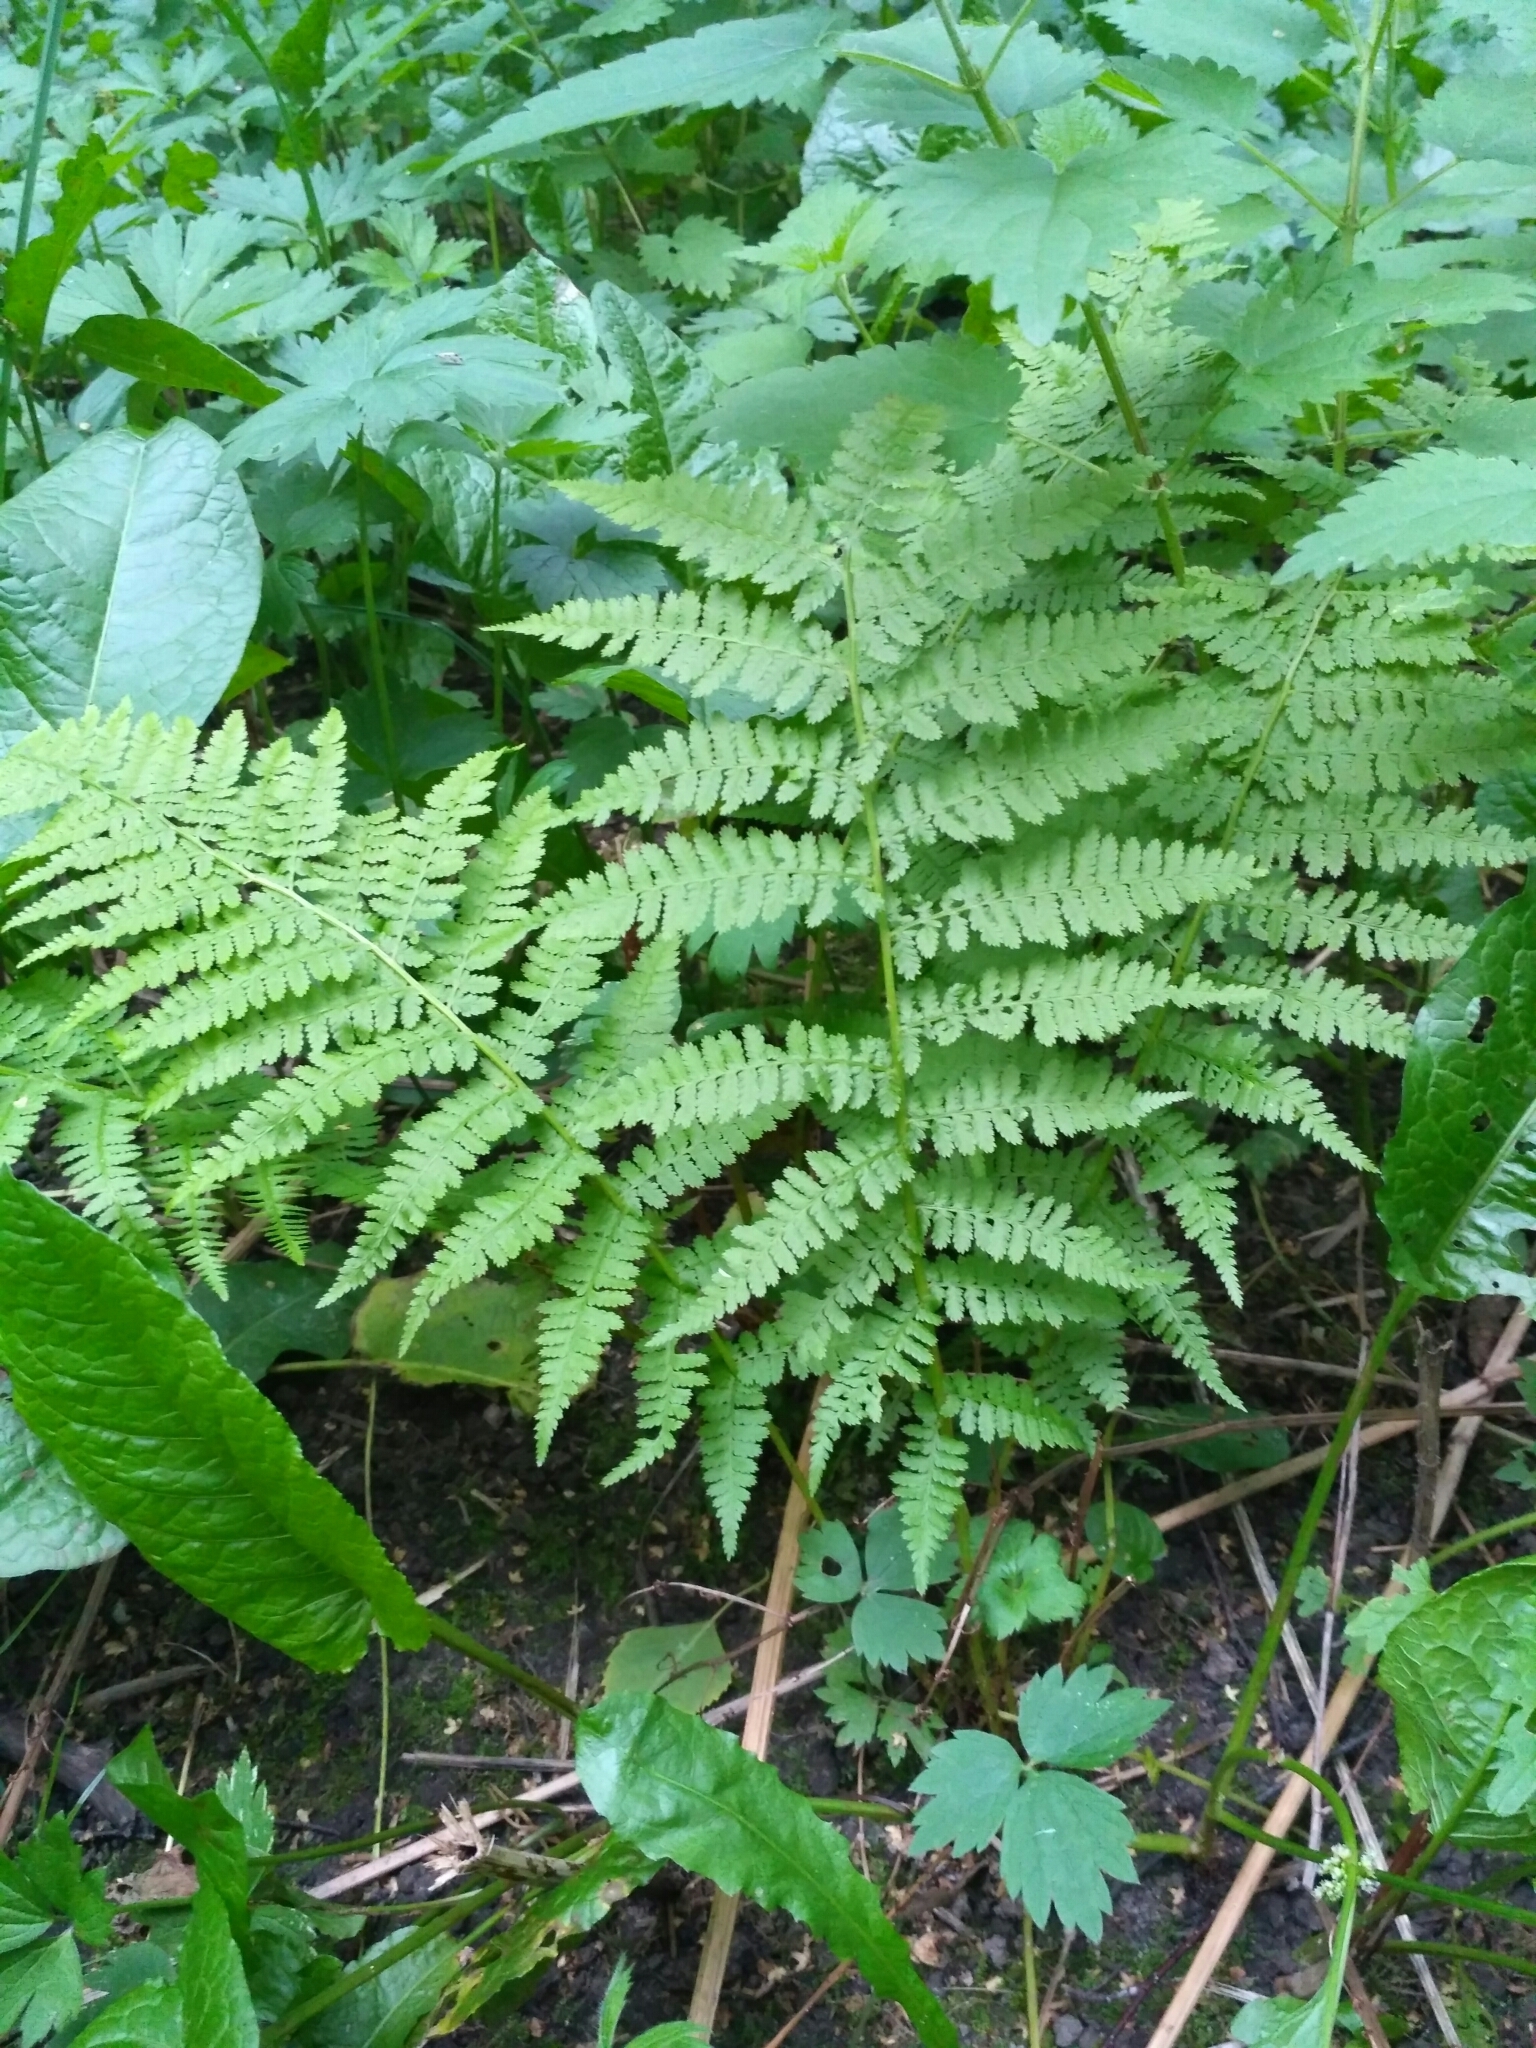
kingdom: Plantae
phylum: Tracheophyta
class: Polypodiopsida
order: Polypodiales
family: Athyriaceae
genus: Athyrium
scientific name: Athyrium filix-femina
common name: Lady fern
